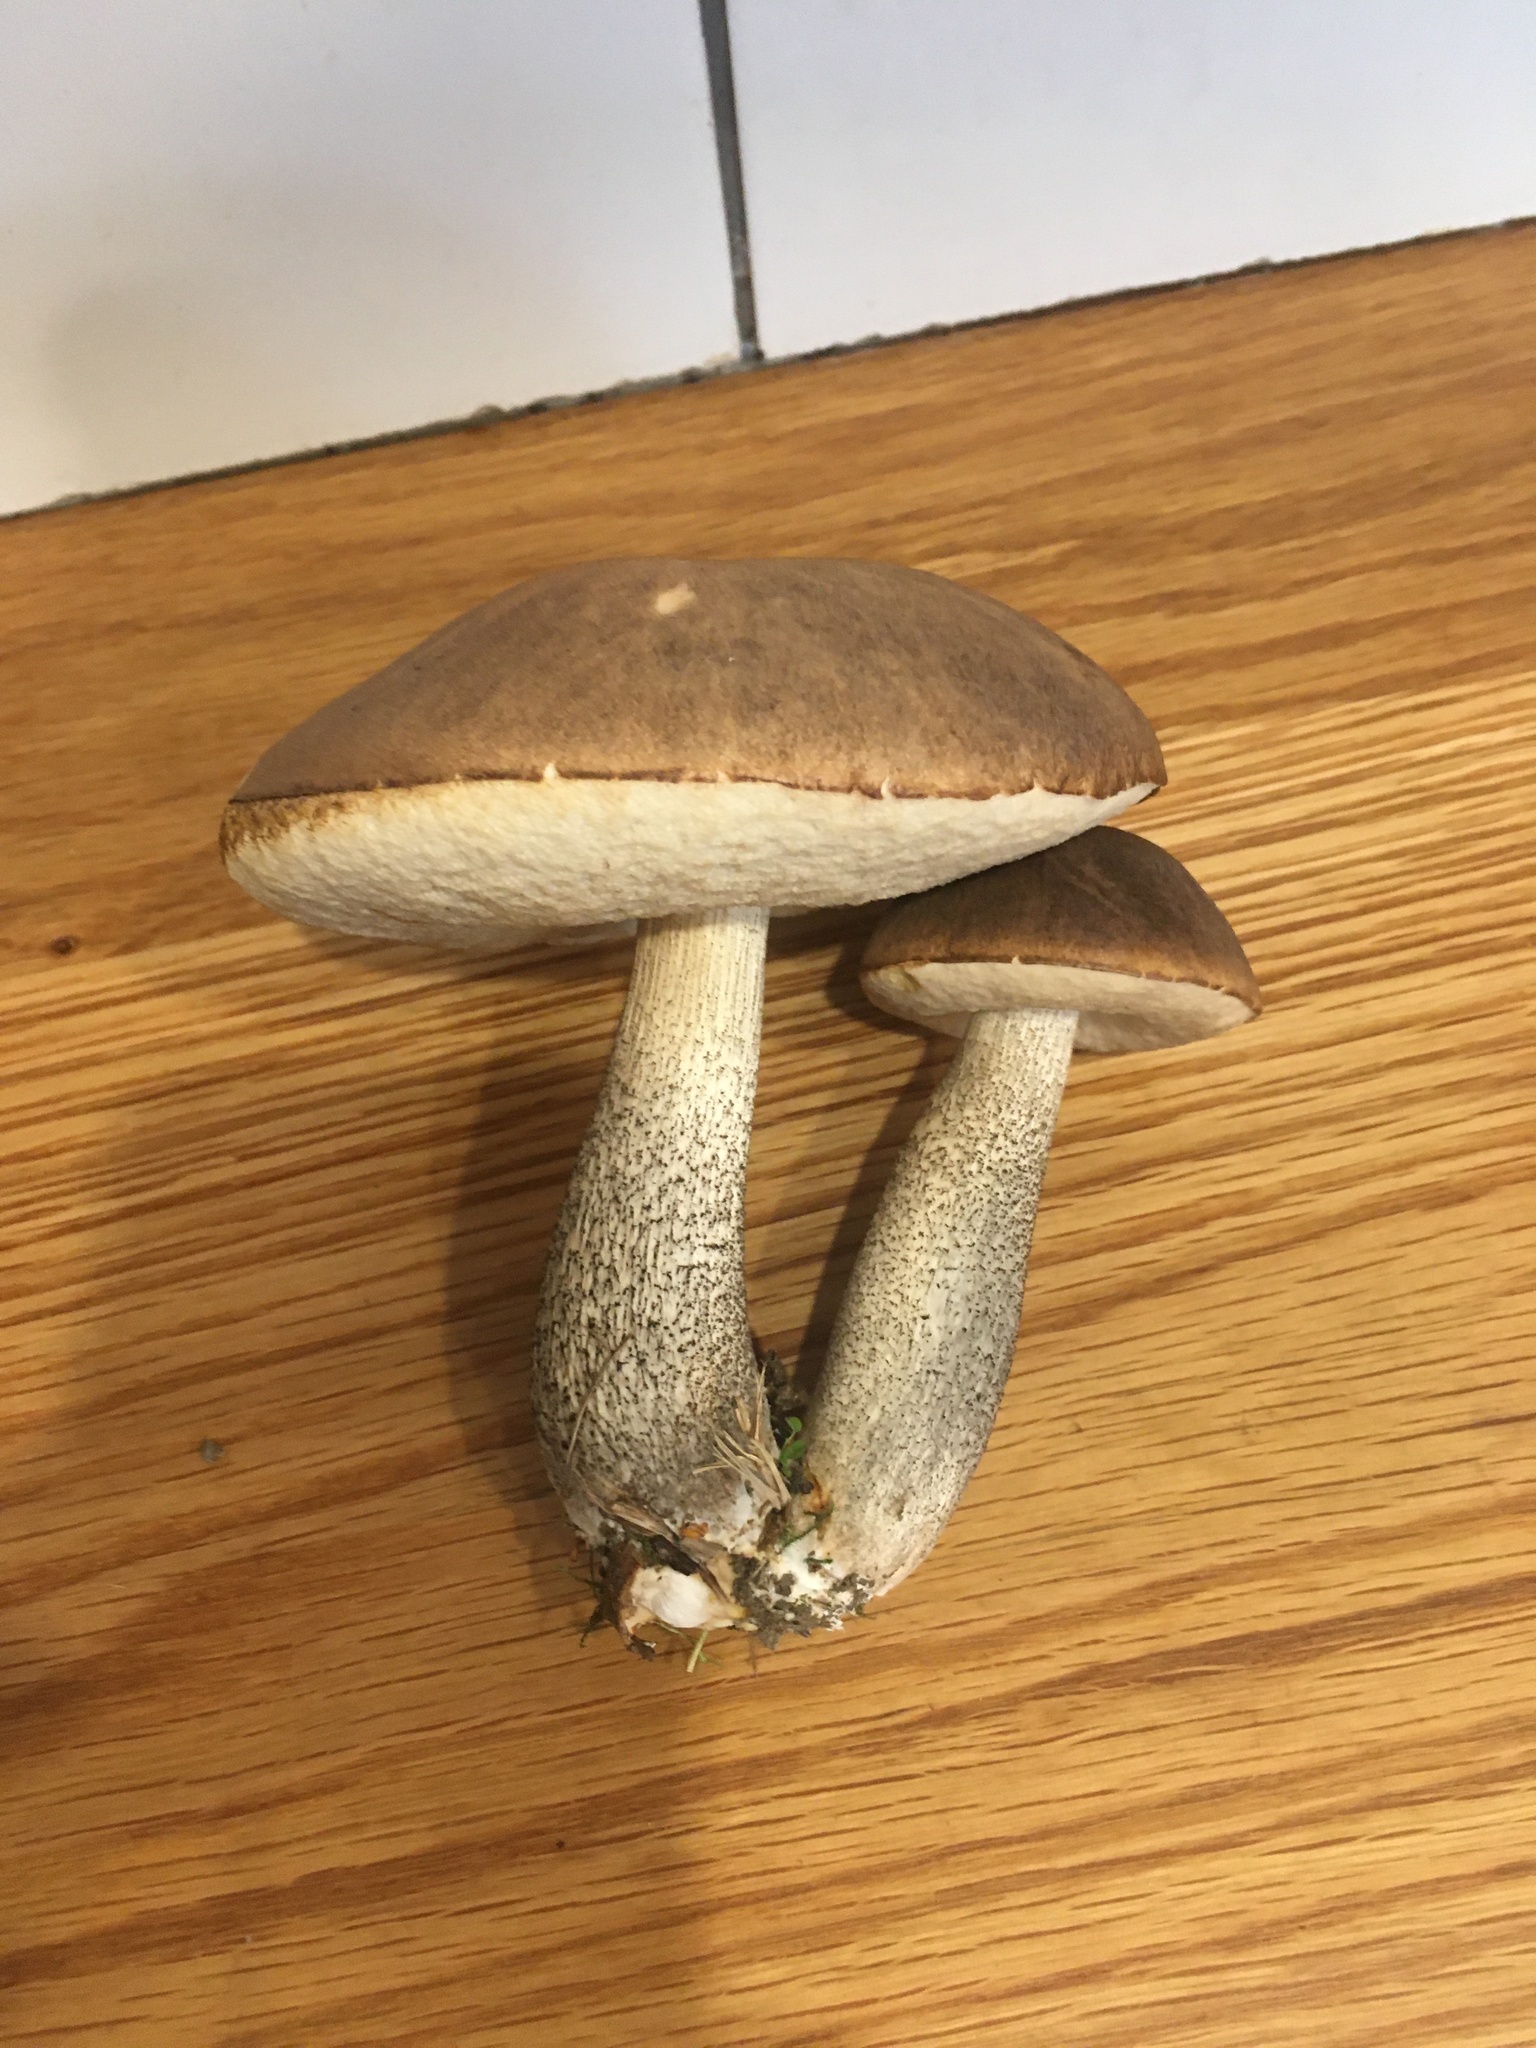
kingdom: Fungi
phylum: Basidiomycota
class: Agaricomycetes
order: Boletales
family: Boletaceae
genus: Leccinum
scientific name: Leccinum scabrum
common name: Blushing bolete
